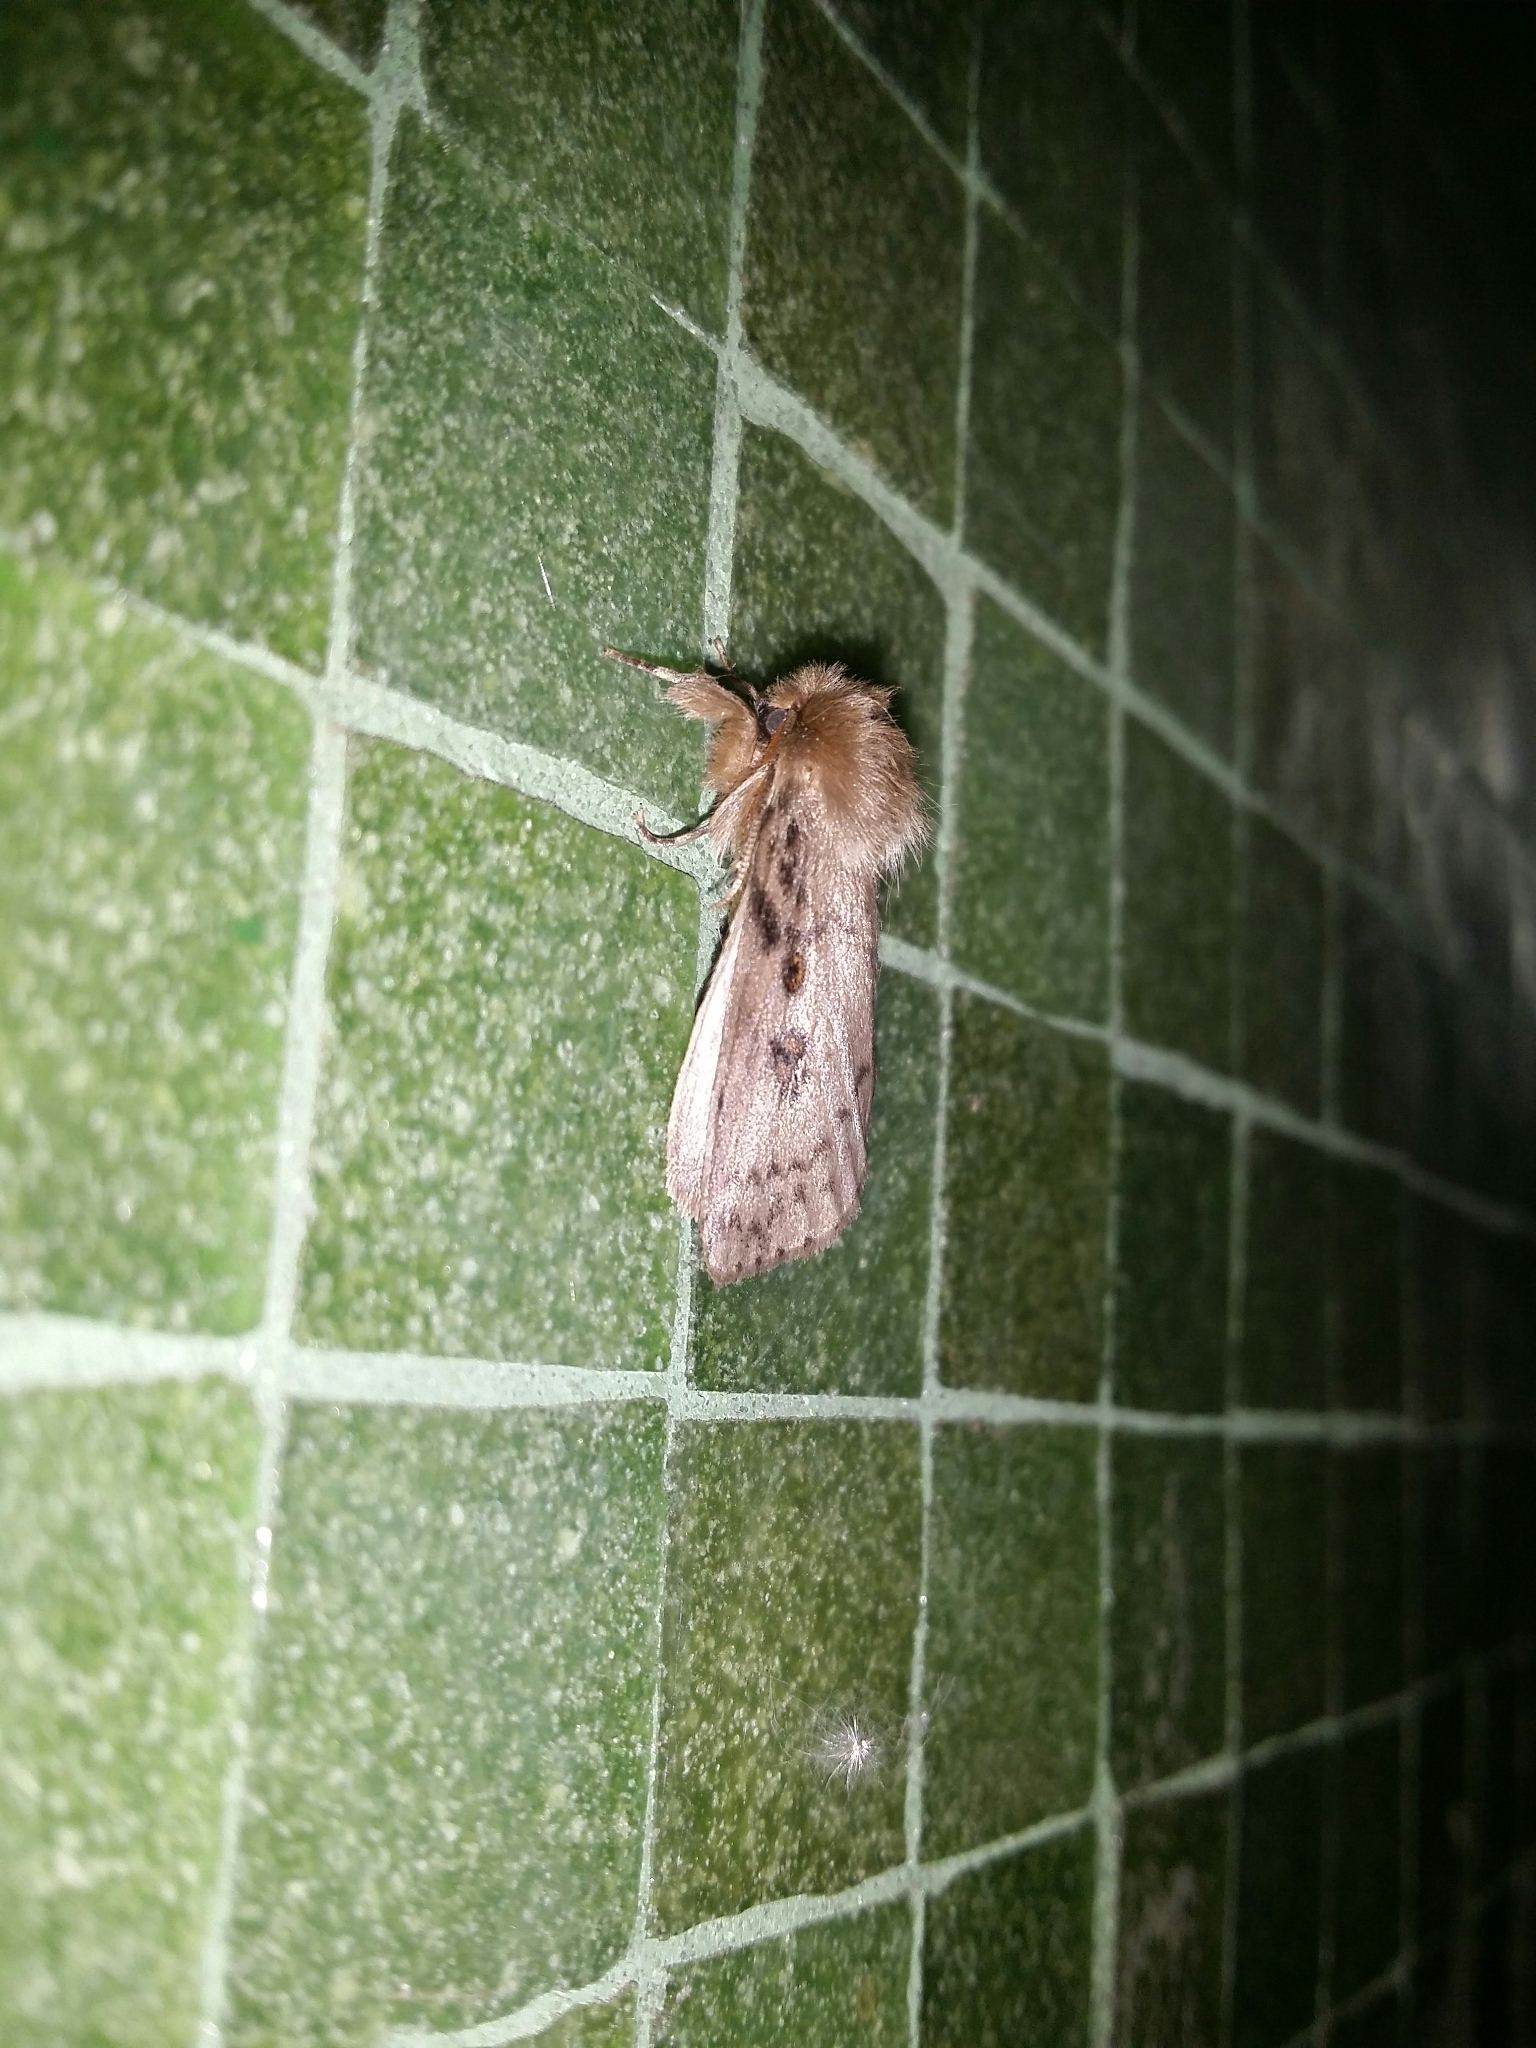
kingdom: Animalia
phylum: Arthropoda
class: Insecta
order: Lepidoptera
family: Erebidae
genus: Leptocneria
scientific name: Leptocneria reducta
